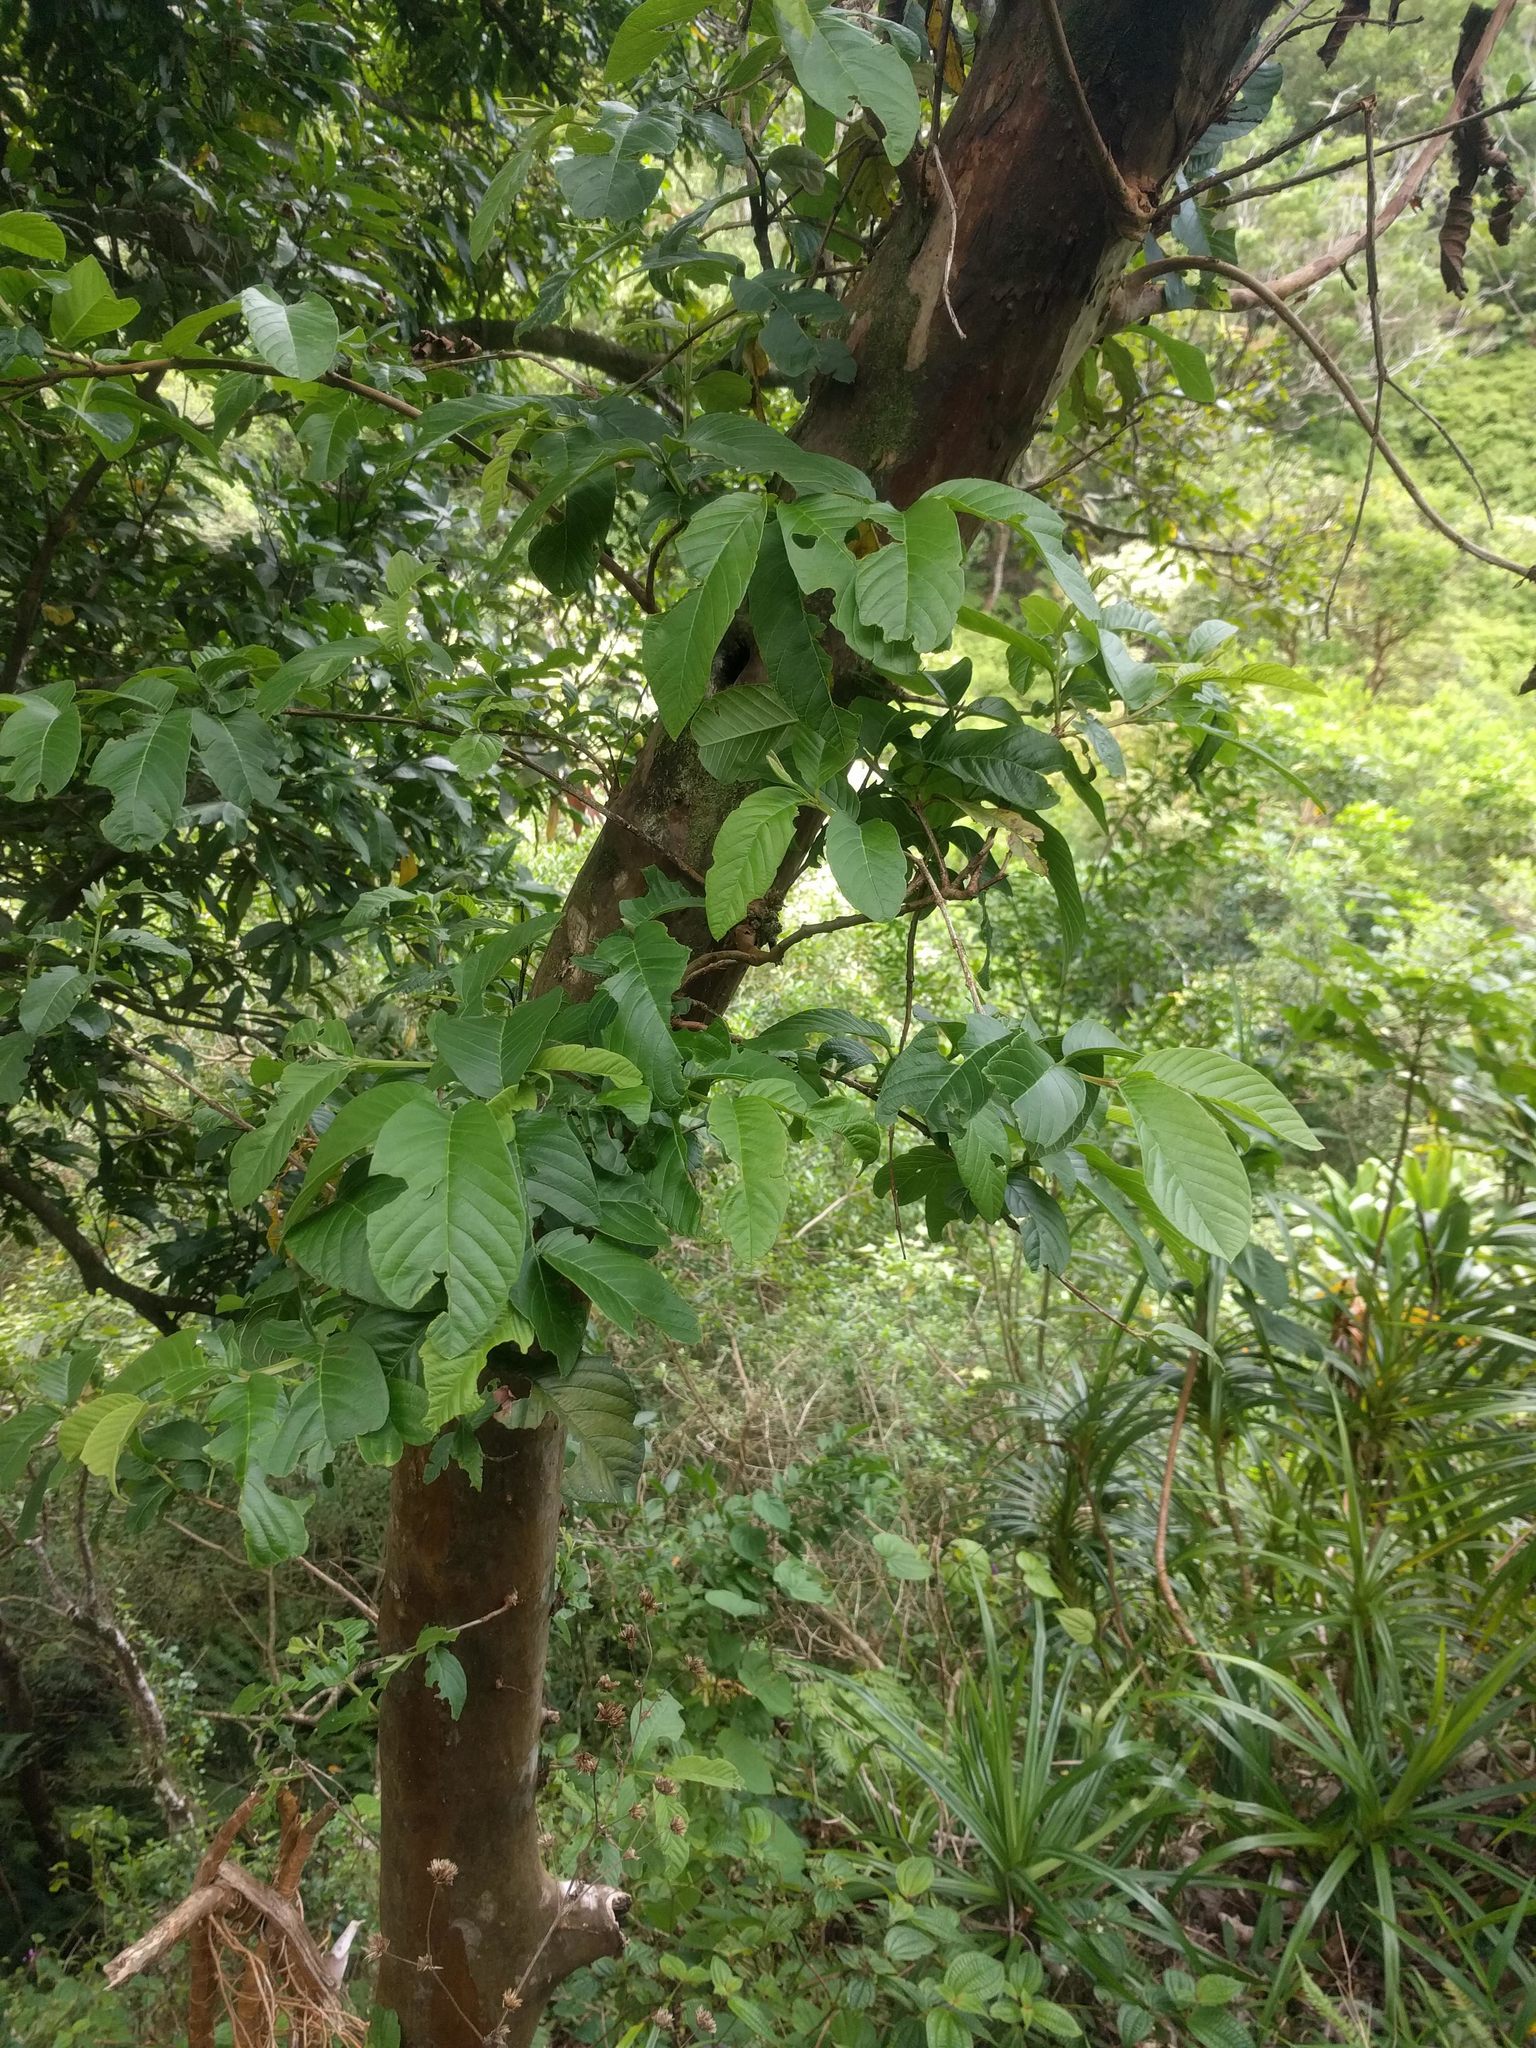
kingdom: Plantae
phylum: Tracheophyta
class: Magnoliopsida
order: Myrtales
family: Myrtaceae
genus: Psidium
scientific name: Psidium guajava
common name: Guava
